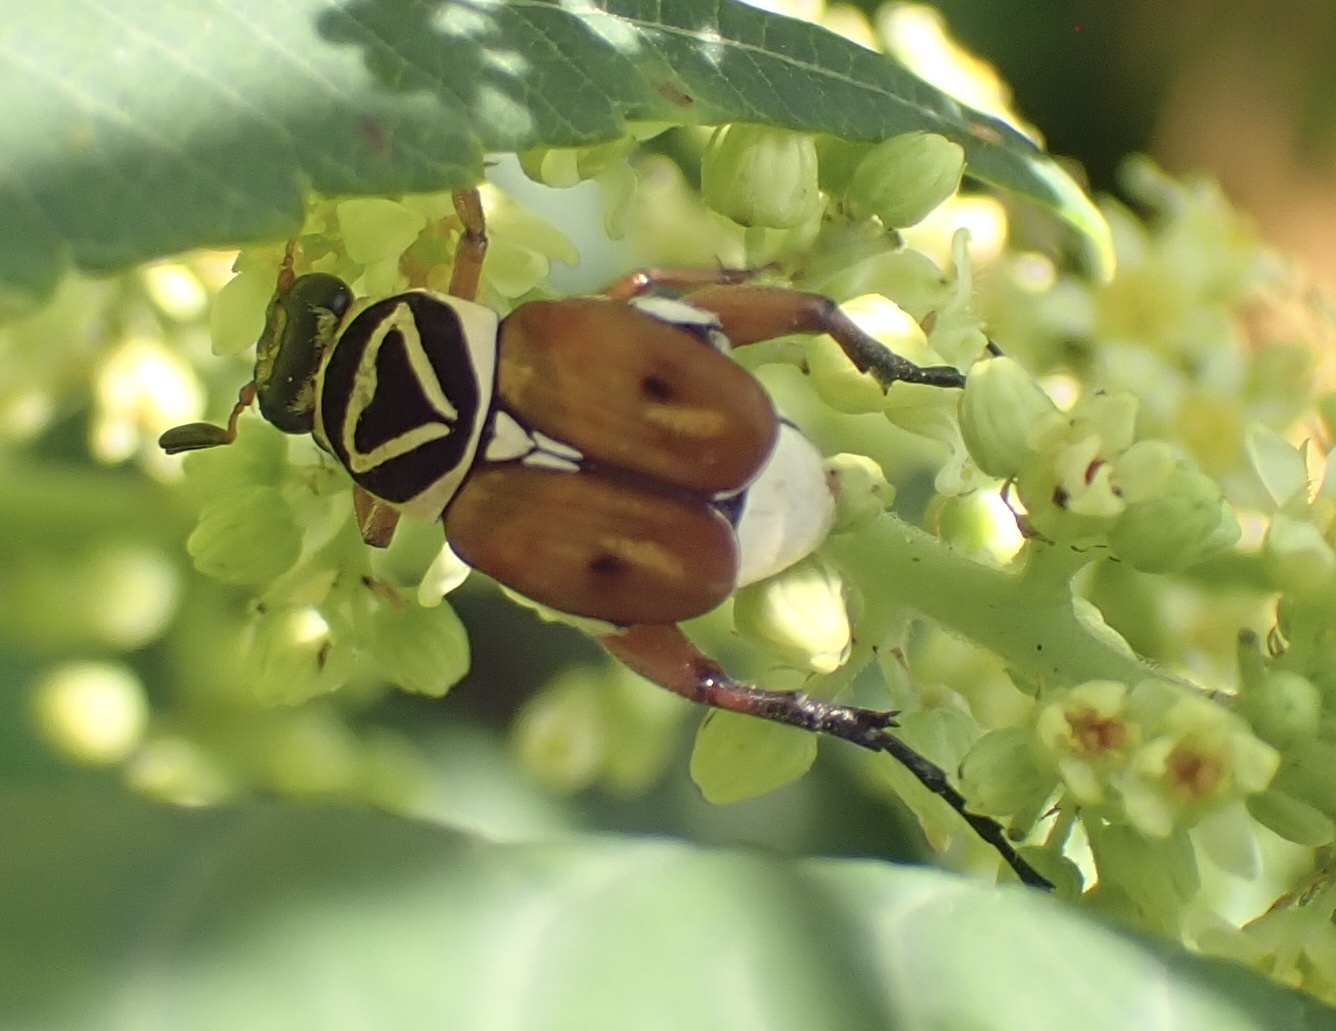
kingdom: Animalia
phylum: Arthropoda
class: Insecta
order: Coleoptera
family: Scarabaeidae
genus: Trigonopeltastes
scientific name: Trigonopeltastes delta
